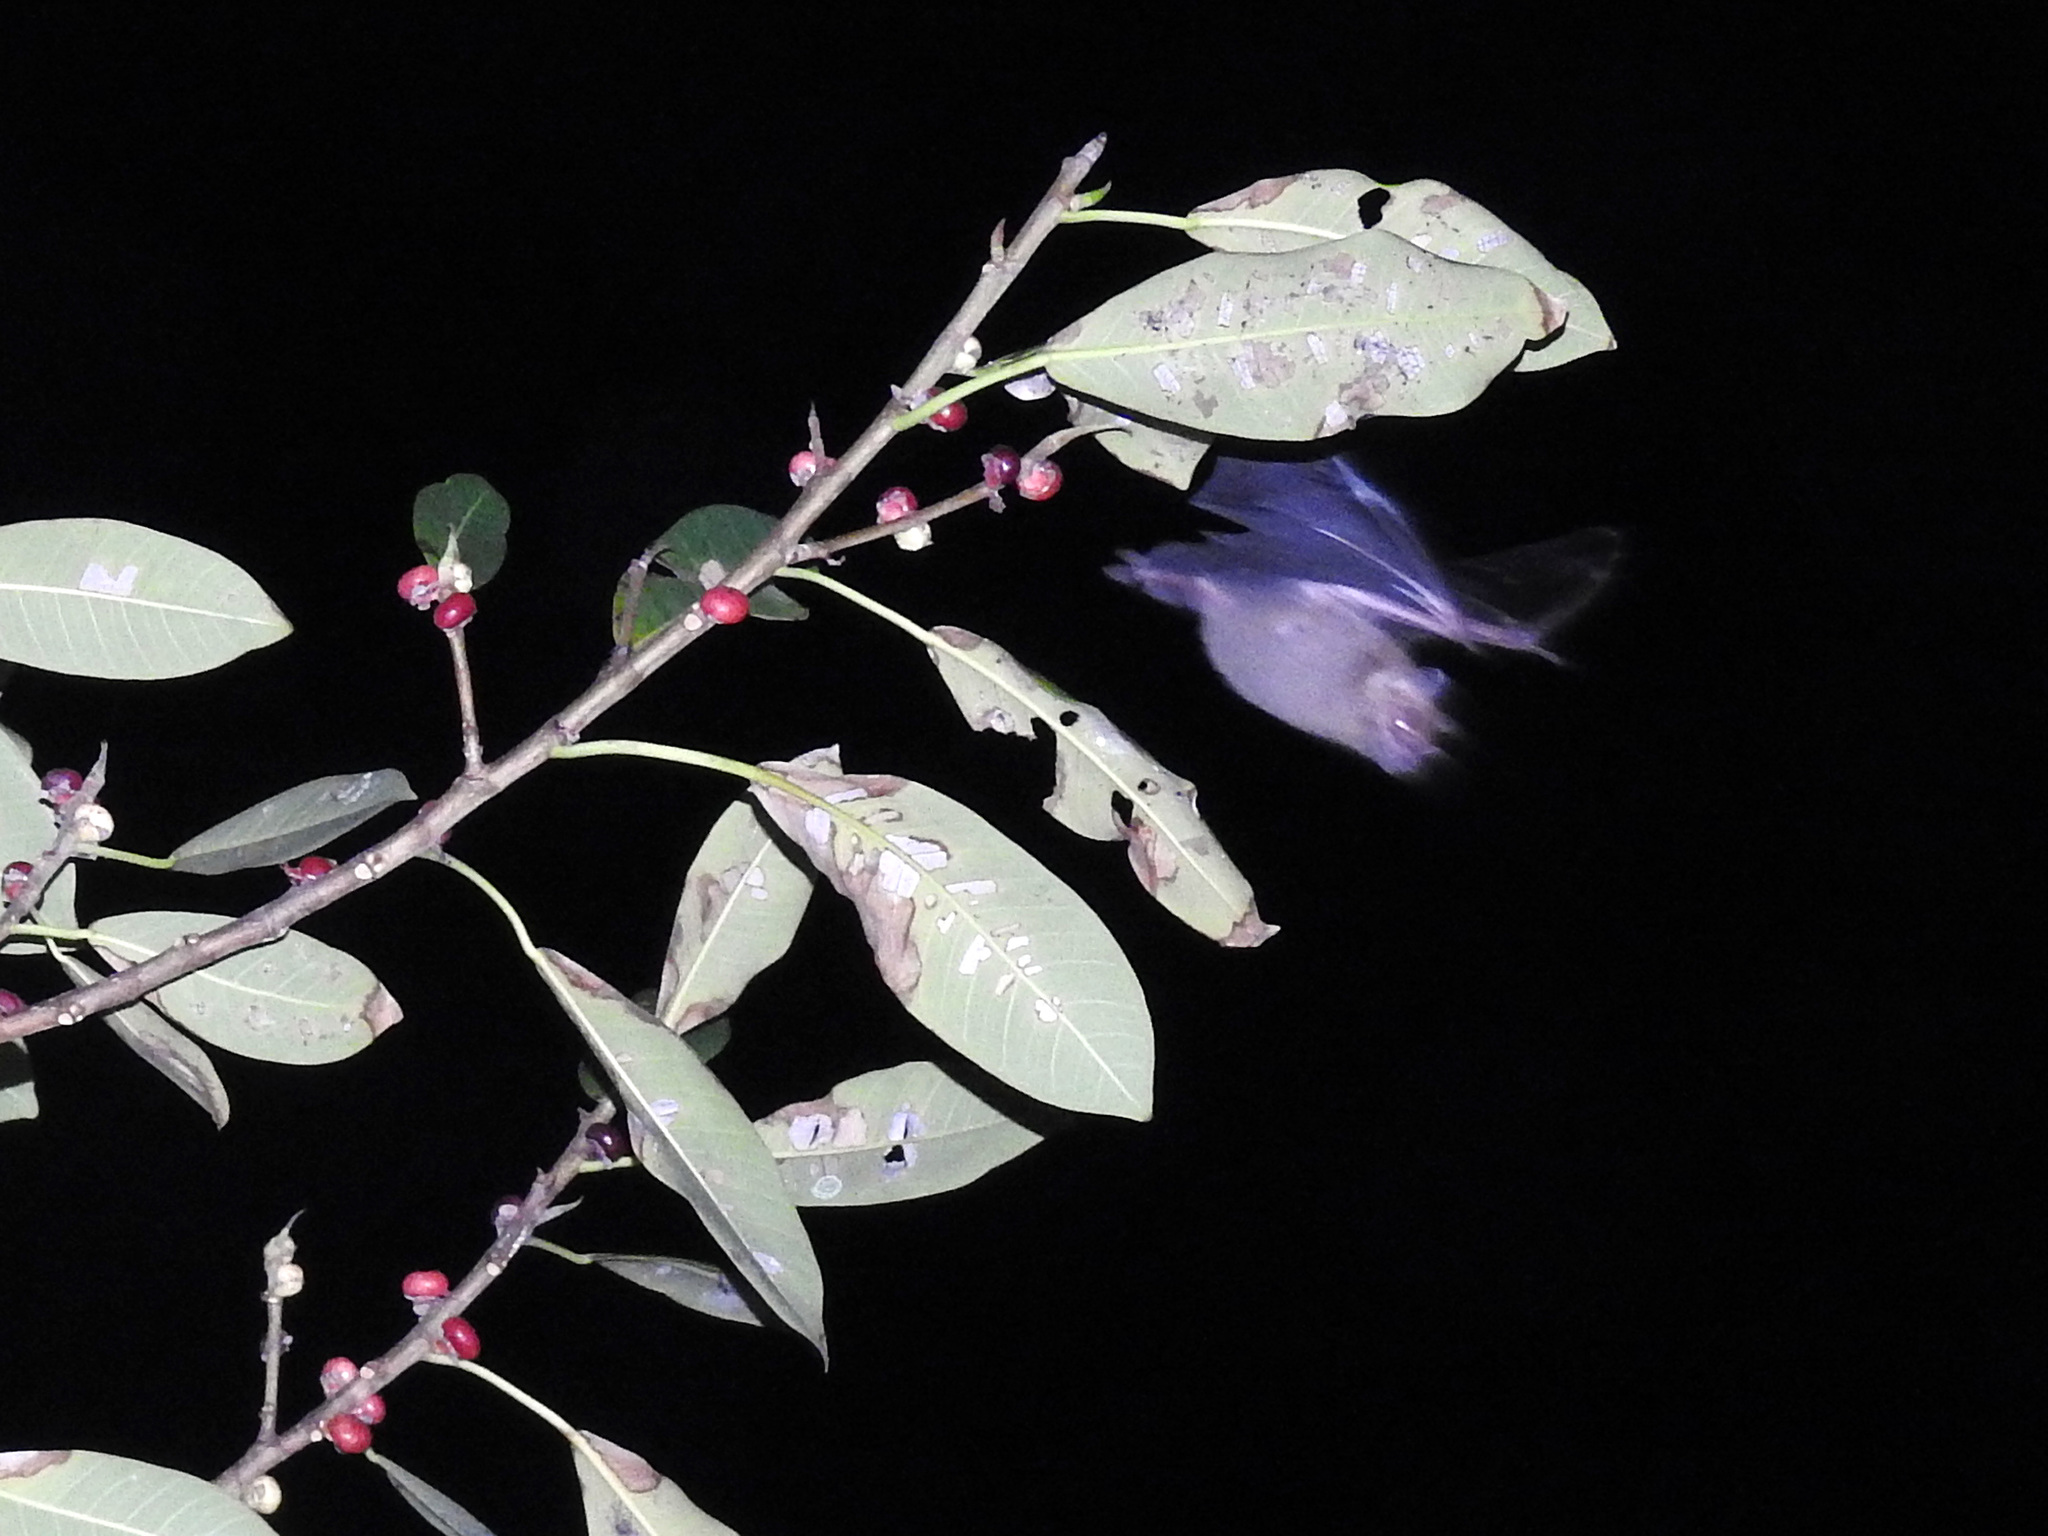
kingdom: Animalia
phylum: Chordata
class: Mammalia
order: Chiroptera
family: Phyllostomidae
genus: Artibeus
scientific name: Artibeus jamaicensis
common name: Jamaican fruit-eating bat
